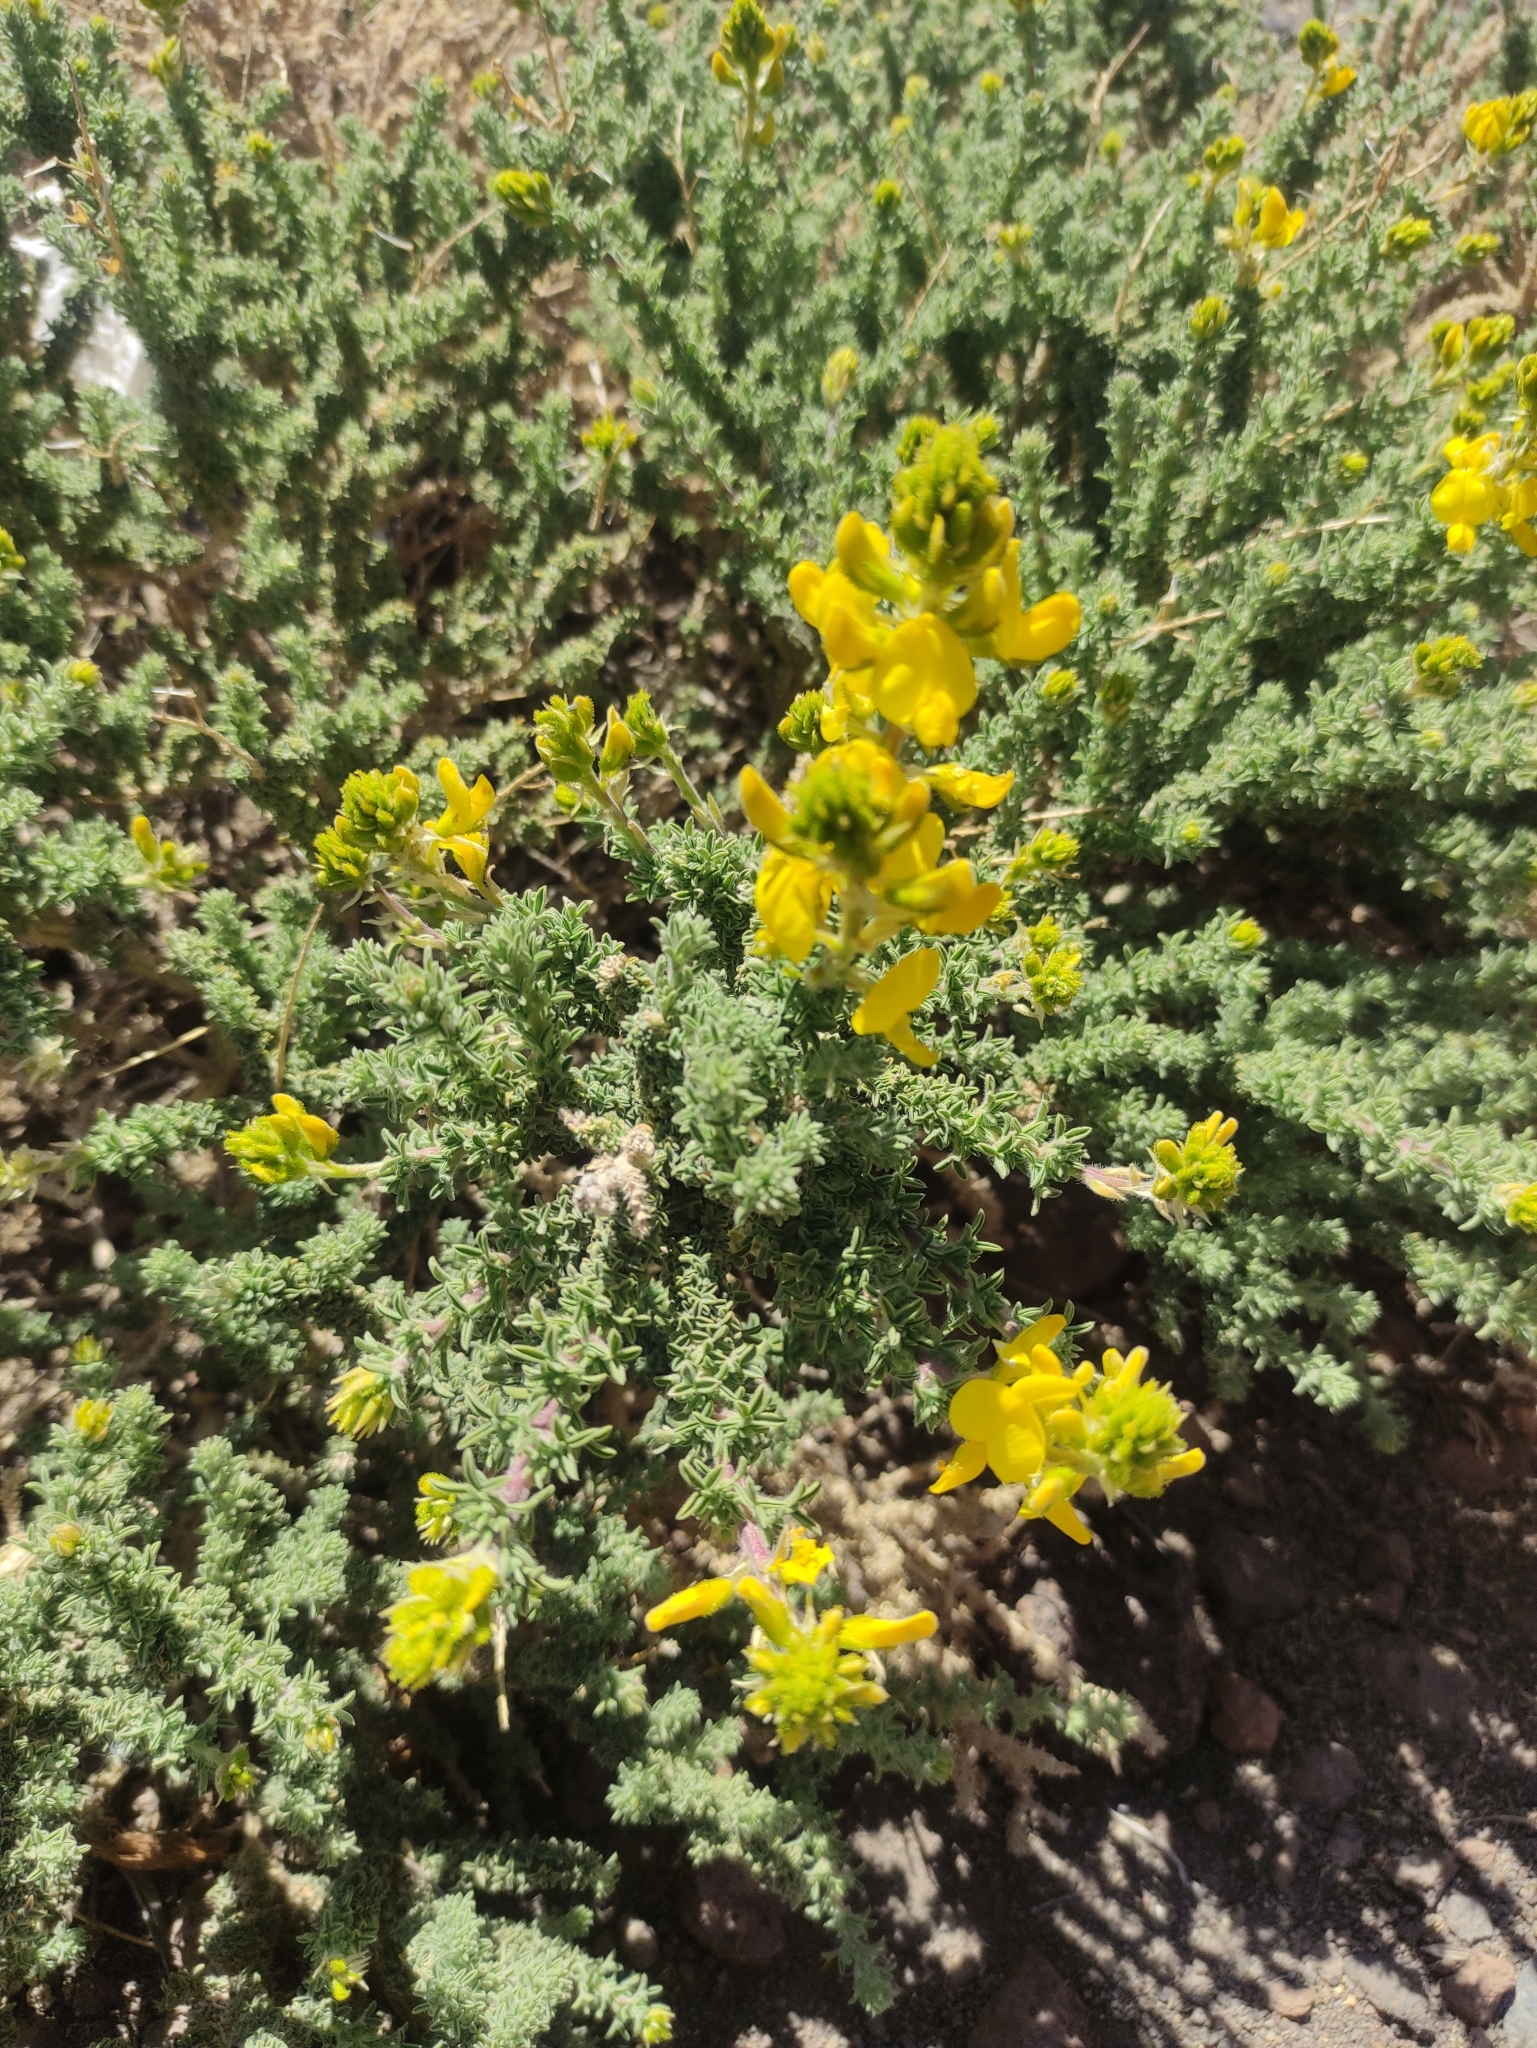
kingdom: Plantae
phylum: Tracheophyta
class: Magnoliopsida
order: Fabales
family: Fabaceae
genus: Adenocarpus
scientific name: Adenocarpus viscosus
